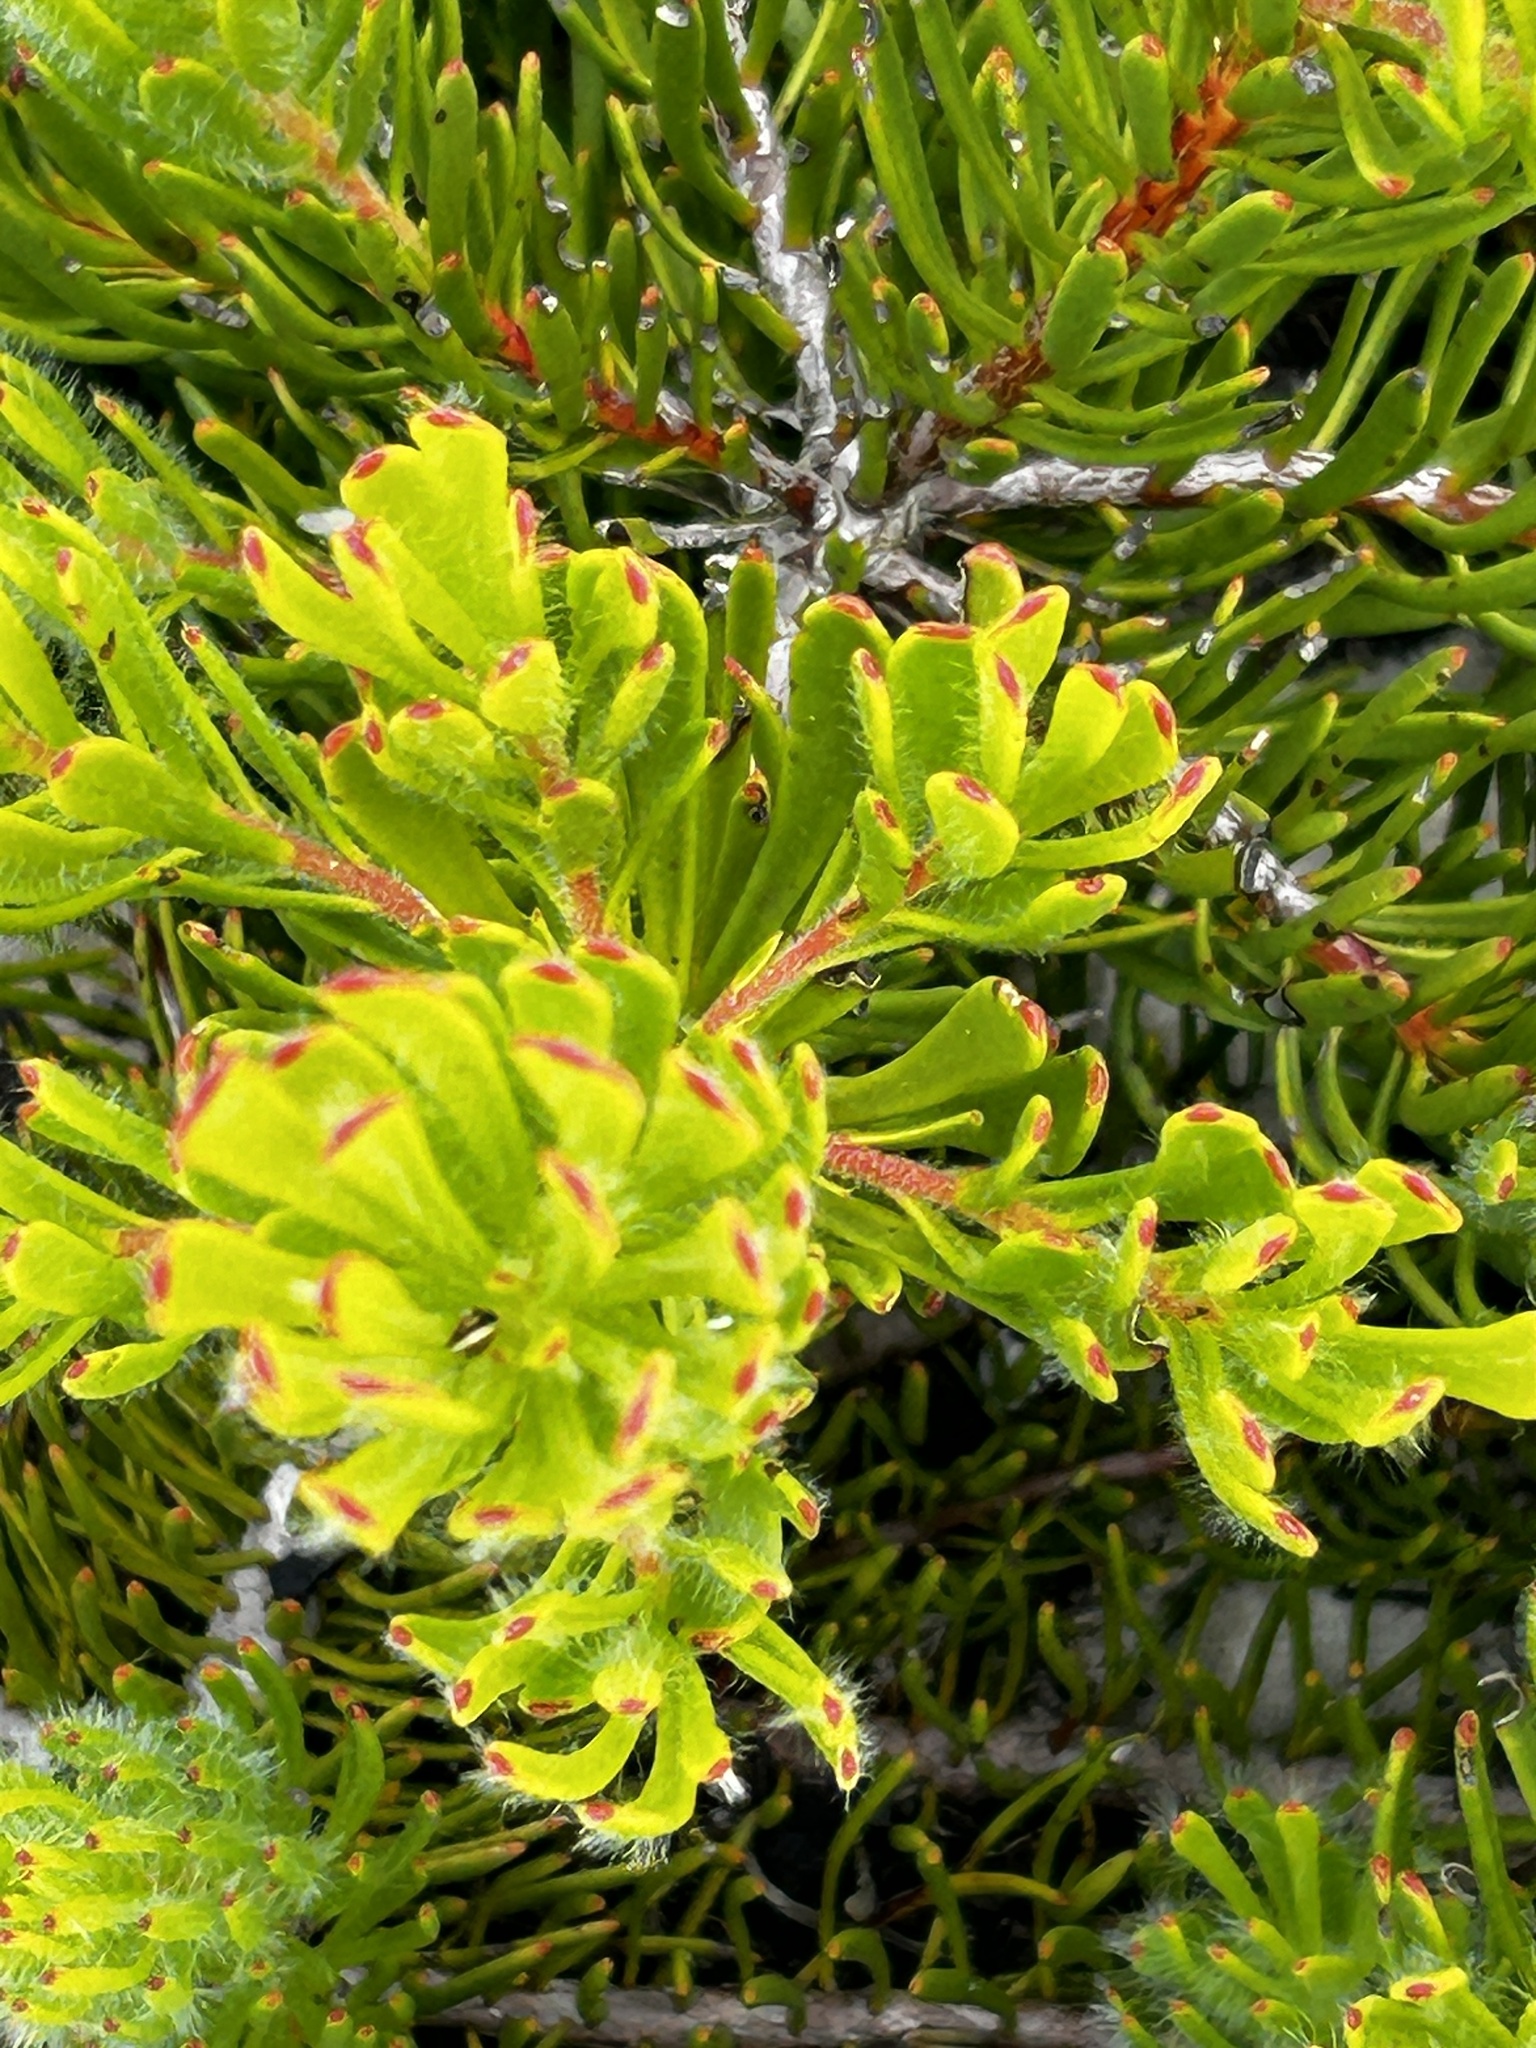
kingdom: Plantae
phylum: Tracheophyta
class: Magnoliopsida
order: Proteales
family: Proteaceae
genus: Leucadendron
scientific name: Leucadendron muirii
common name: Silver-ball conebush
